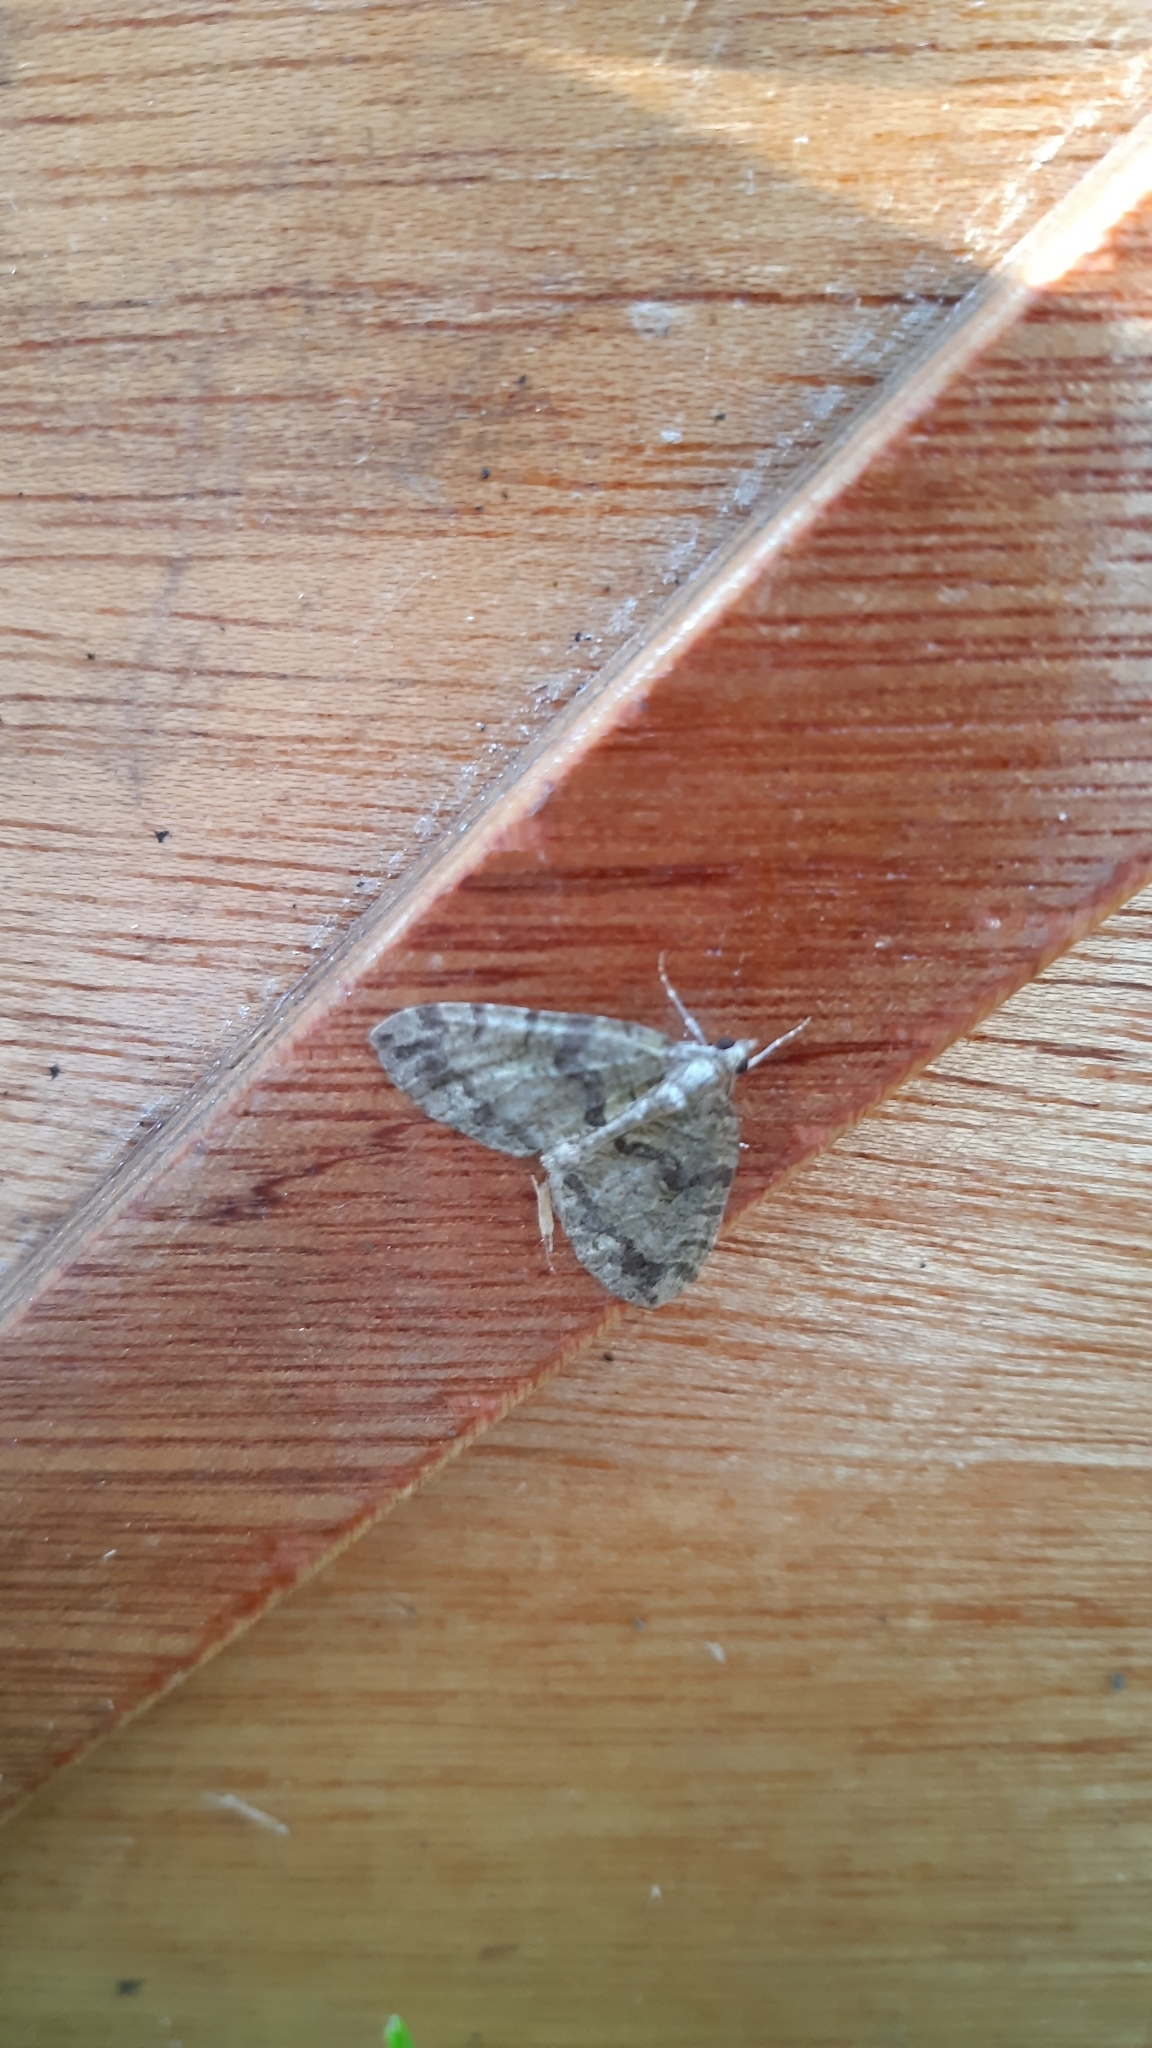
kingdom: Animalia
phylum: Arthropoda
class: Insecta
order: Lepidoptera
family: Geometridae
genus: Hydriomena
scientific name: Hydriomena furcata
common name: July highflyer
